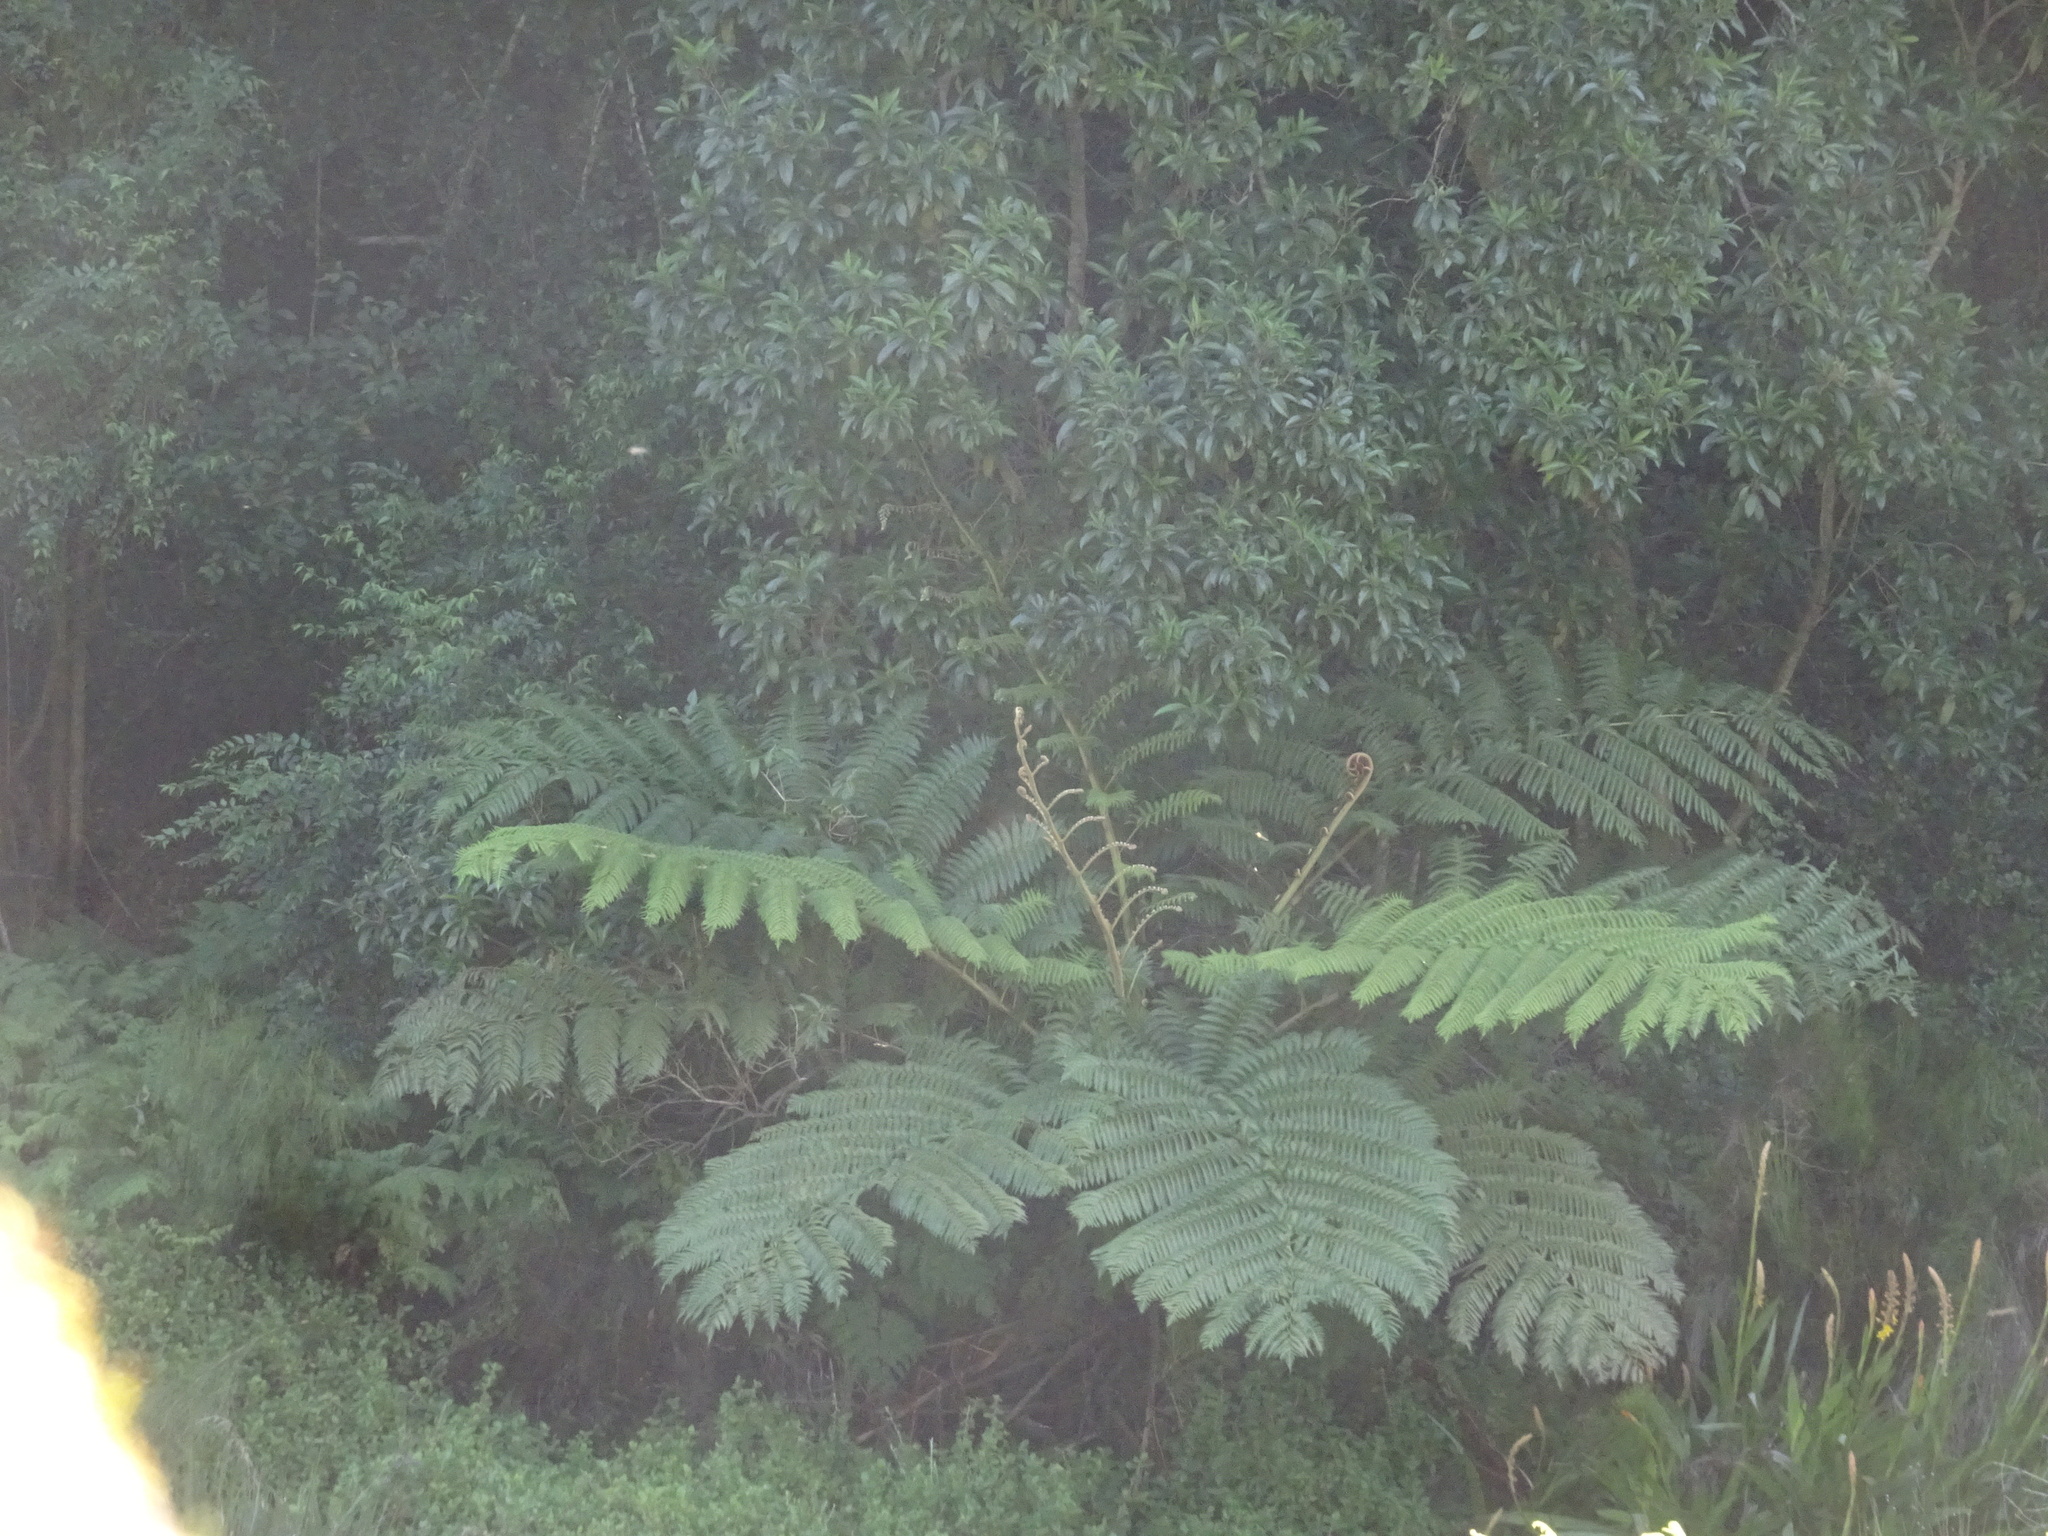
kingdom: Plantae
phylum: Tracheophyta
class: Polypodiopsida
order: Cyatheales
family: Cyatheaceae
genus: Sphaeropteris
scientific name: Sphaeropteris cooperi
